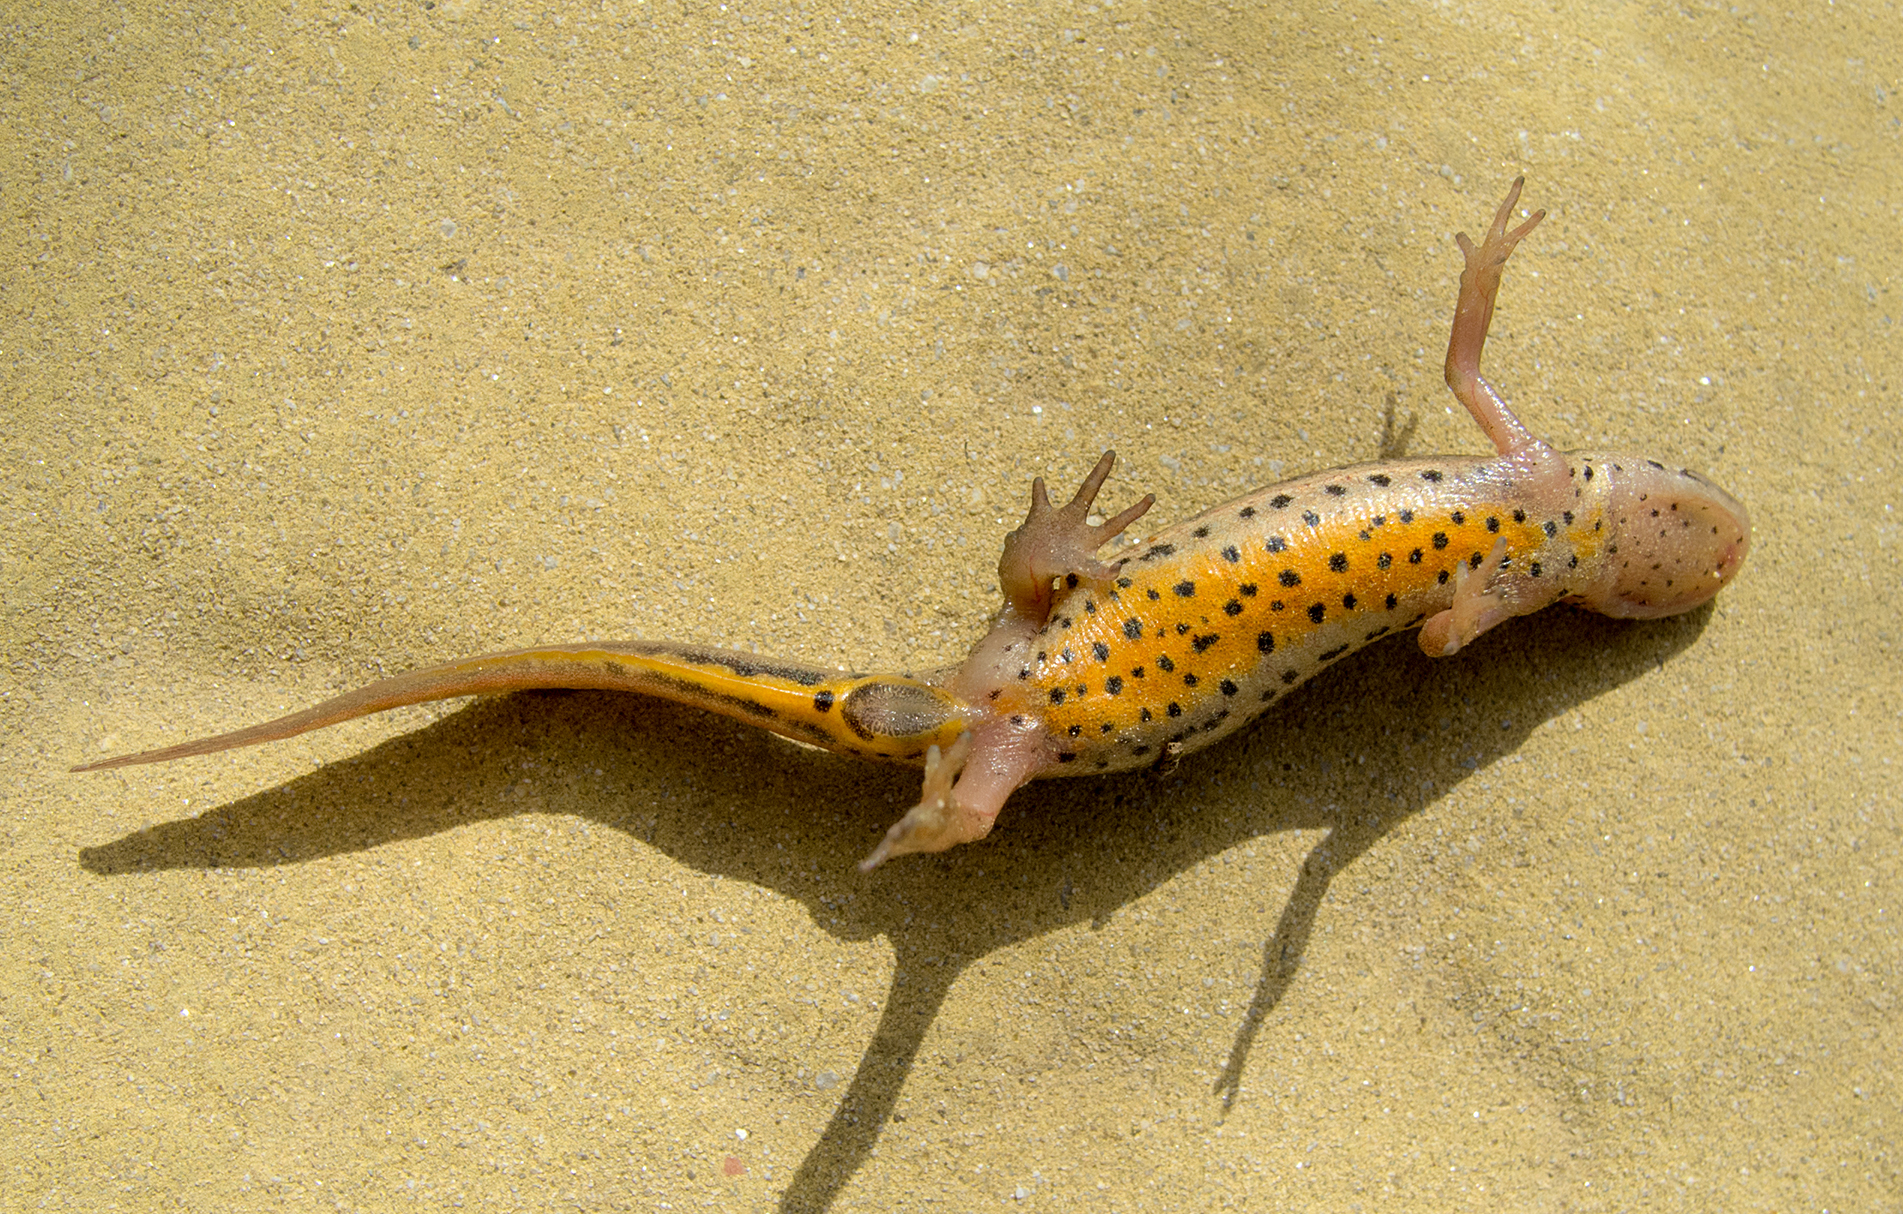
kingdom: Animalia
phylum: Chordata
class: Amphibia
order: Caudata
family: Salamandridae
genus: Lissotriton
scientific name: Lissotriton schmidtleri
